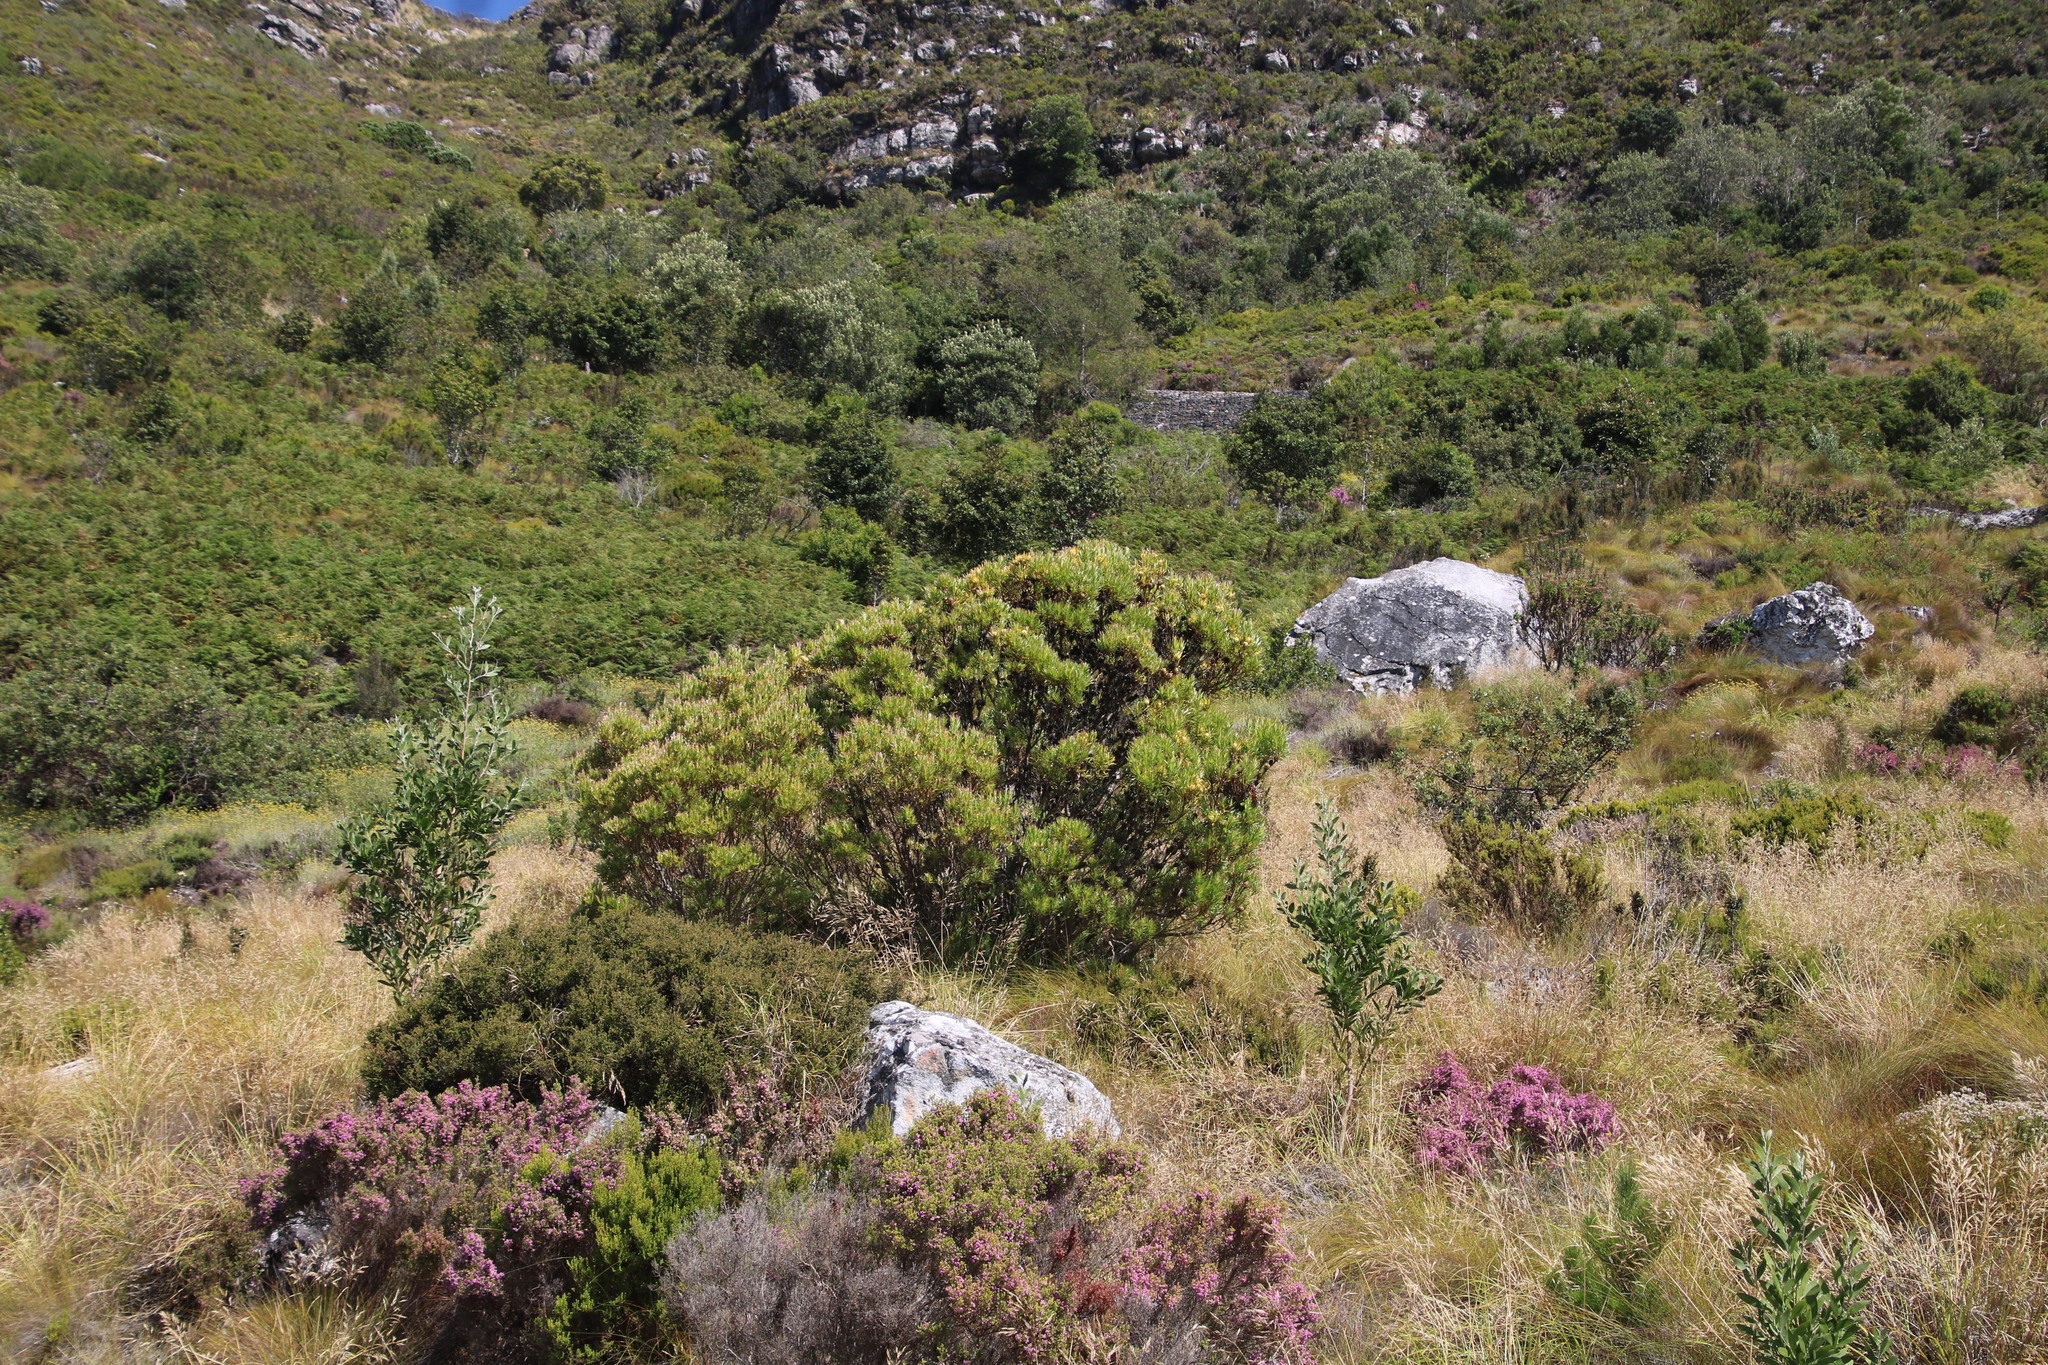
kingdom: Plantae
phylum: Tracheophyta
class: Magnoliopsida
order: Proteales
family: Proteaceae
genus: Leucadendron
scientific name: Leucadendron xanthoconus
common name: Sickle-leaf conebush
